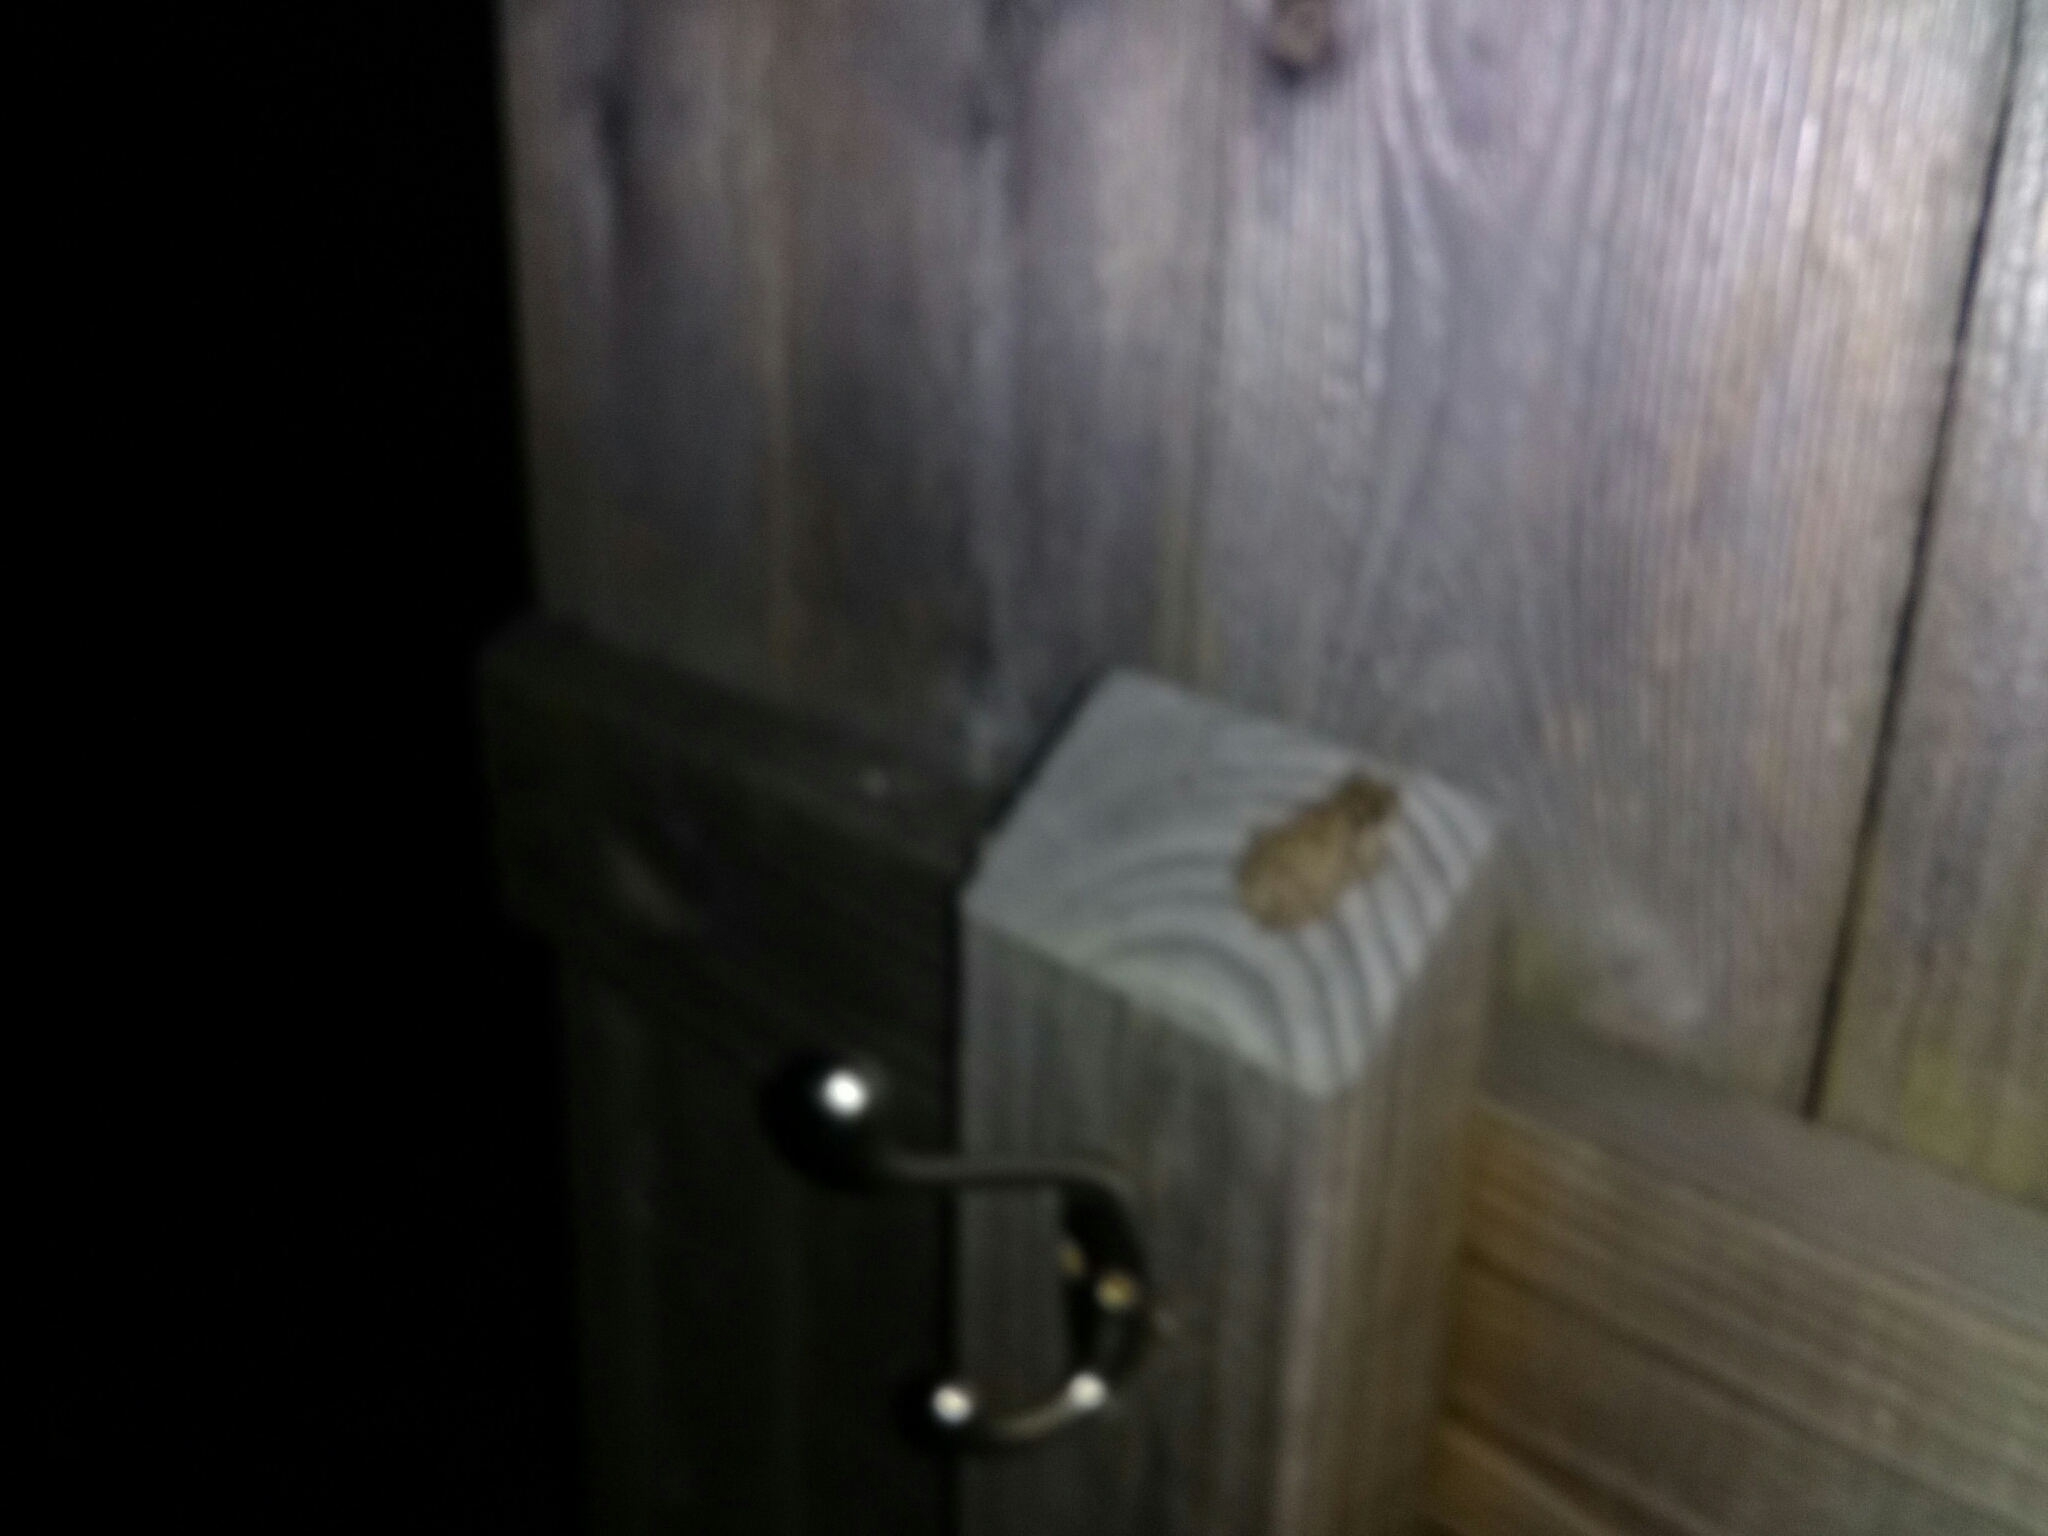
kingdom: Animalia
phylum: Chordata
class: Amphibia
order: Anura
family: Hylidae
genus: Dryophytes
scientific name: Dryophytes versicolor
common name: Gray treefrog
